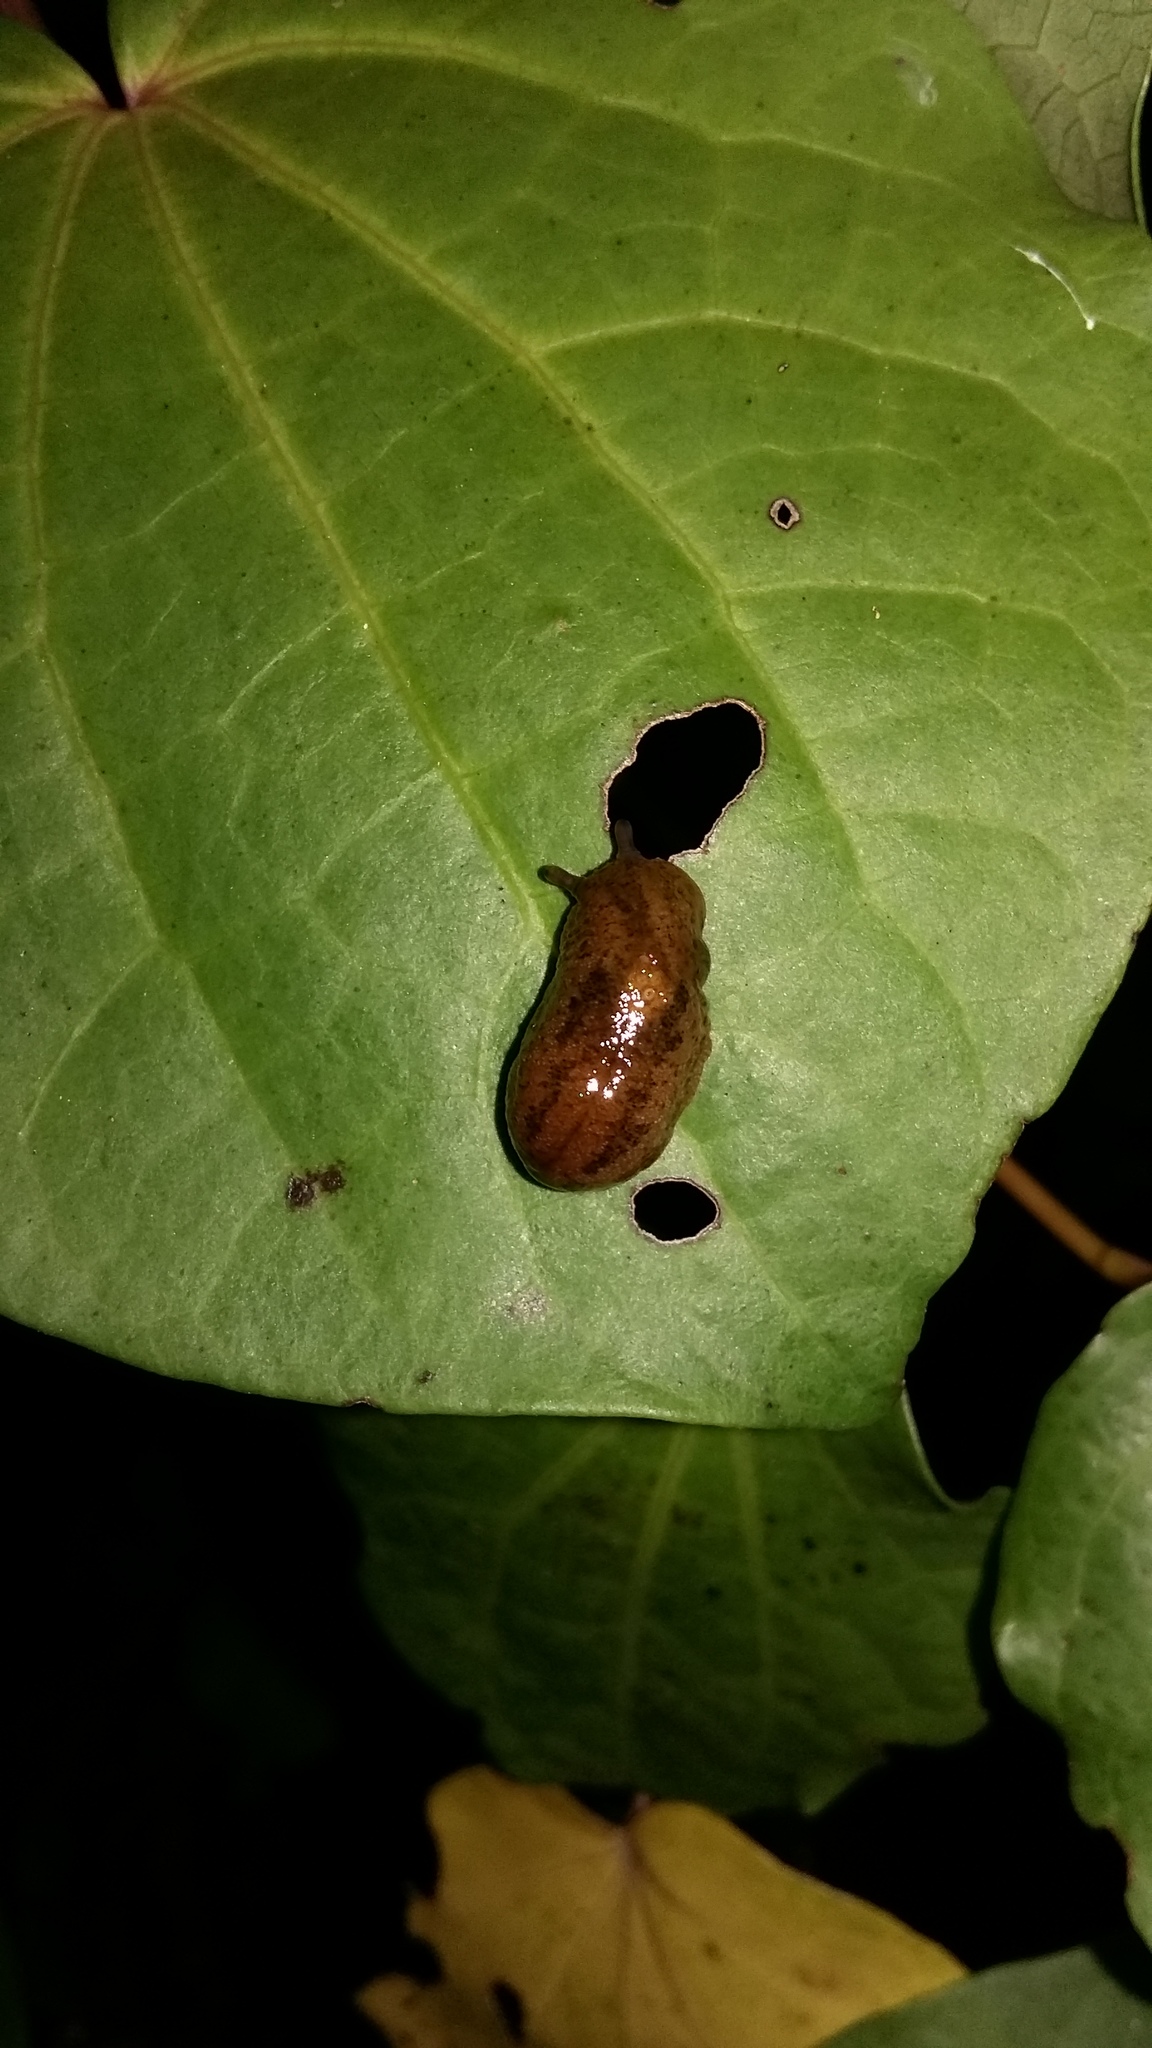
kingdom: Animalia
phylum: Mollusca
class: Gastropoda
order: Stylommatophora
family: Limacidae
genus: Ambigolimax
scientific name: Ambigolimax
